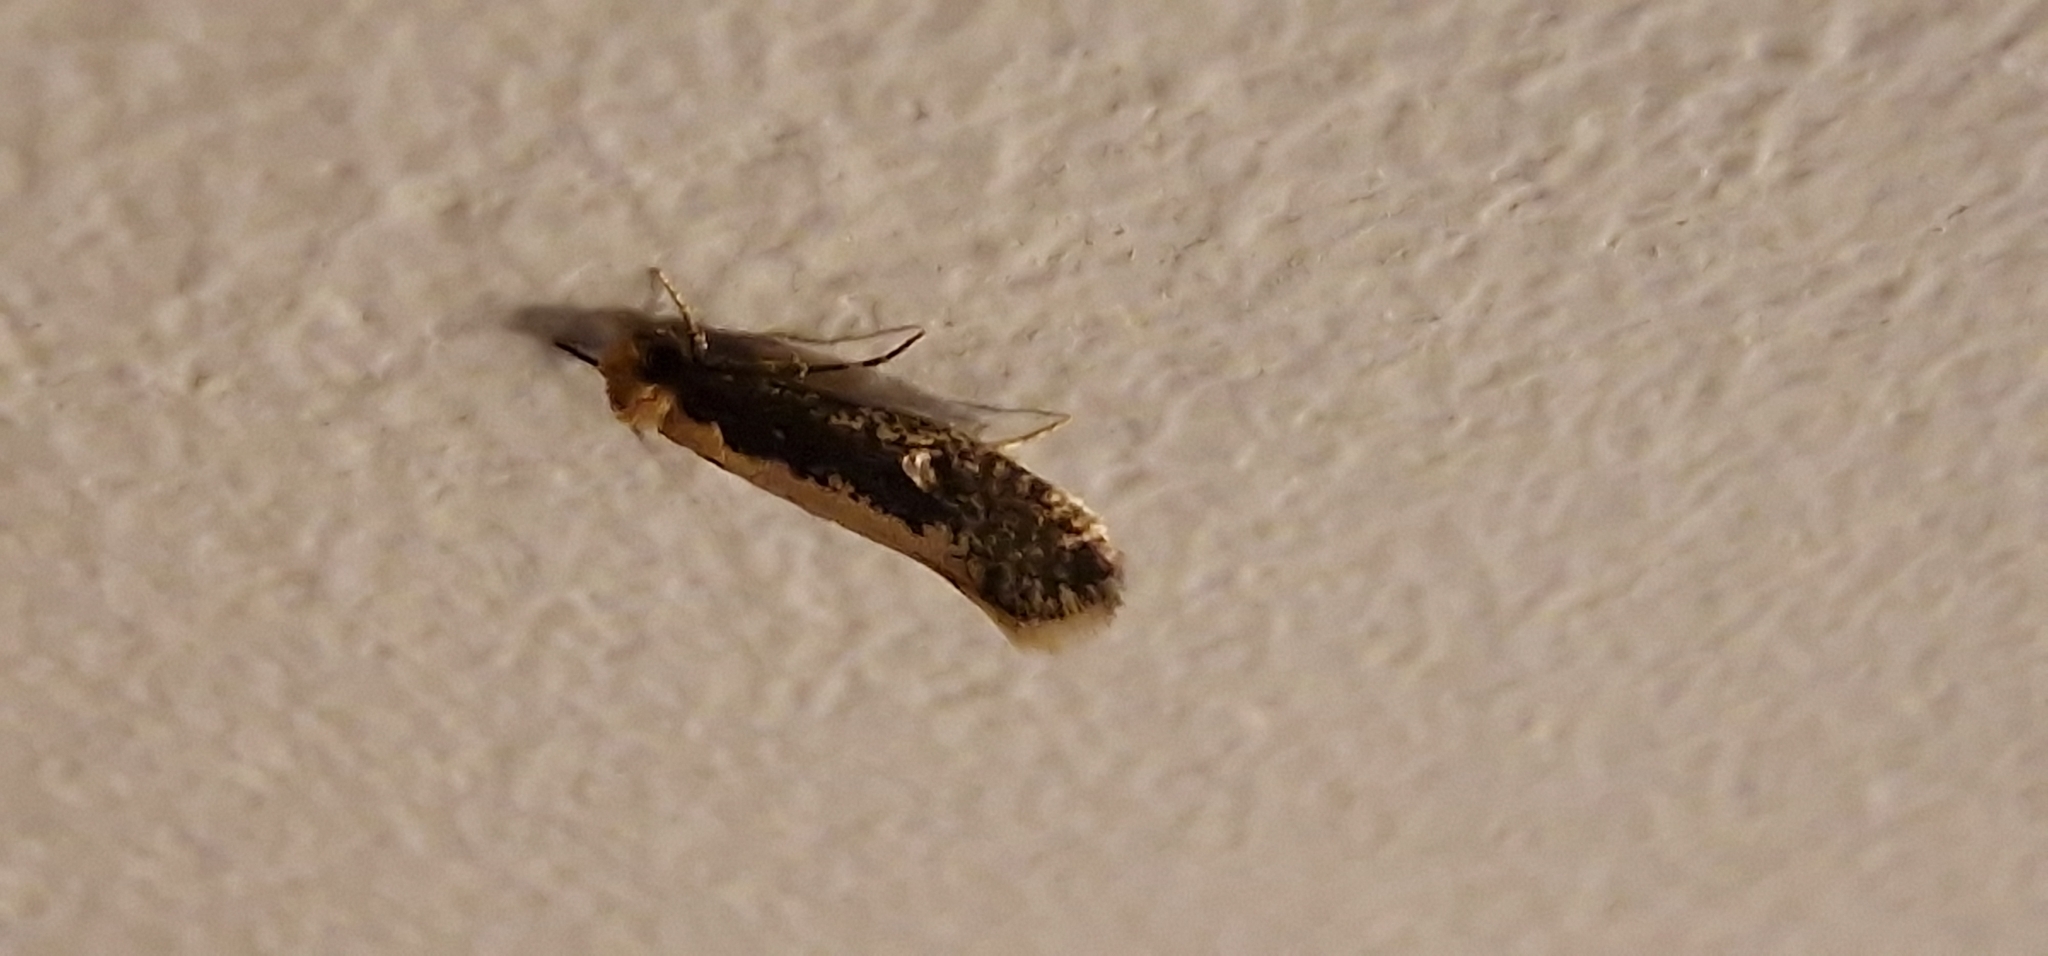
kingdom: Animalia
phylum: Arthropoda
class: Insecta
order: Lepidoptera
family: Tineidae
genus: Monopis
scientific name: Monopis crocicapitella
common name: Moth
